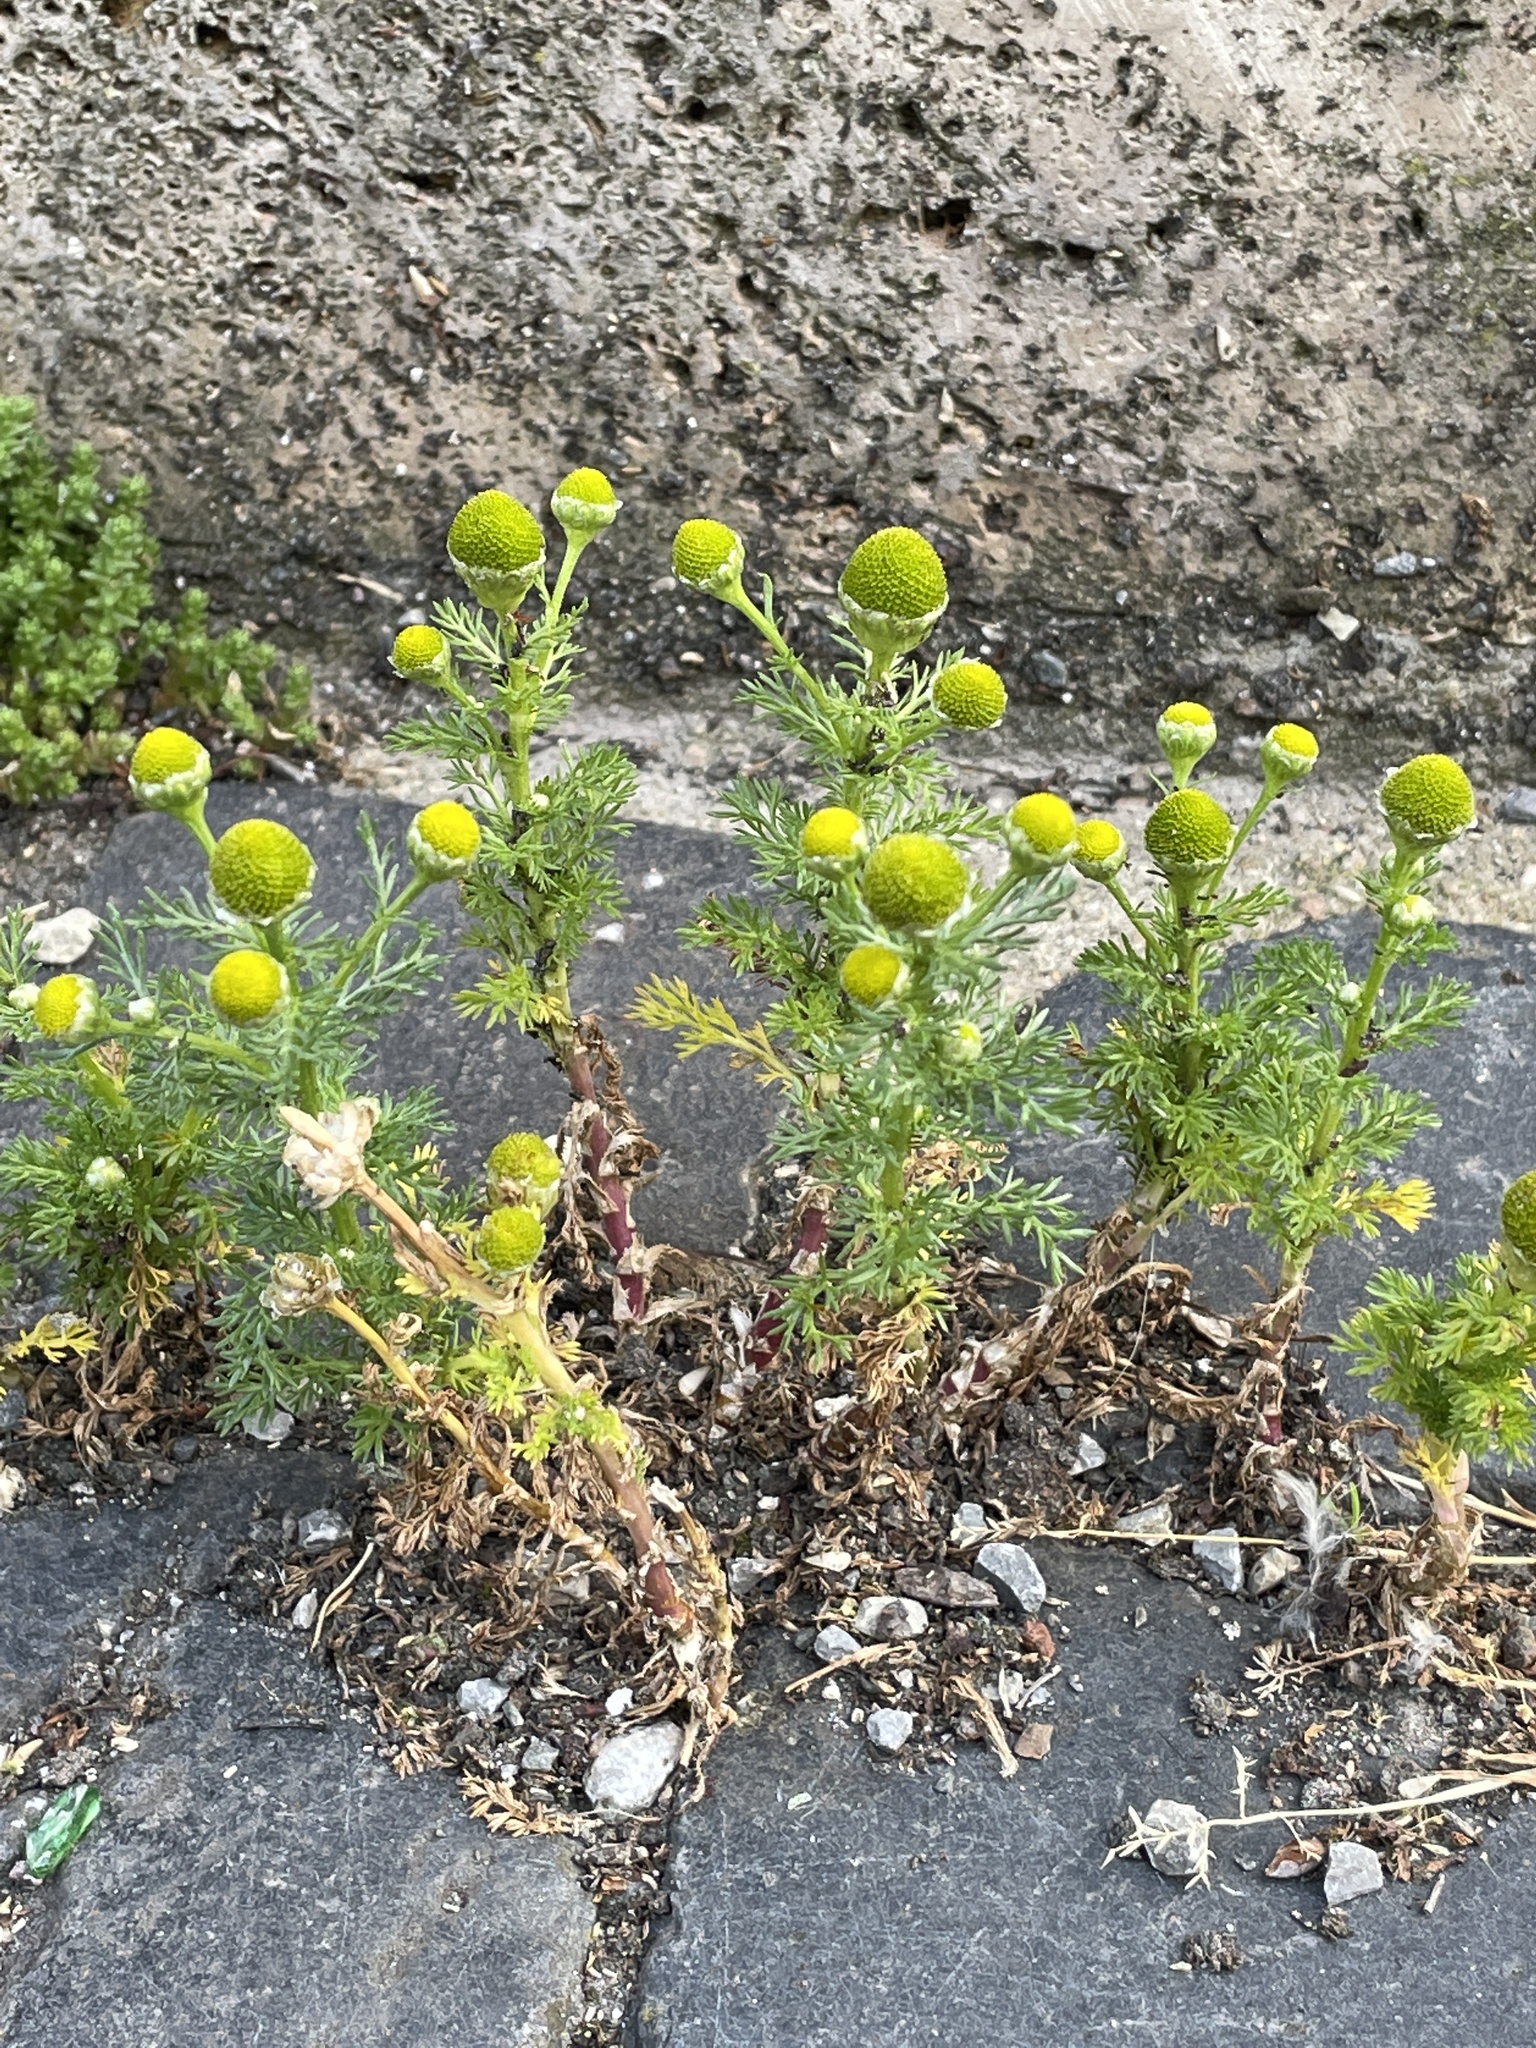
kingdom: Plantae
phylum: Tracheophyta
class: Magnoliopsida
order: Asterales
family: Asteraceae
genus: Matricaria
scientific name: Matricaria discoidea
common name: Disc mayweed
